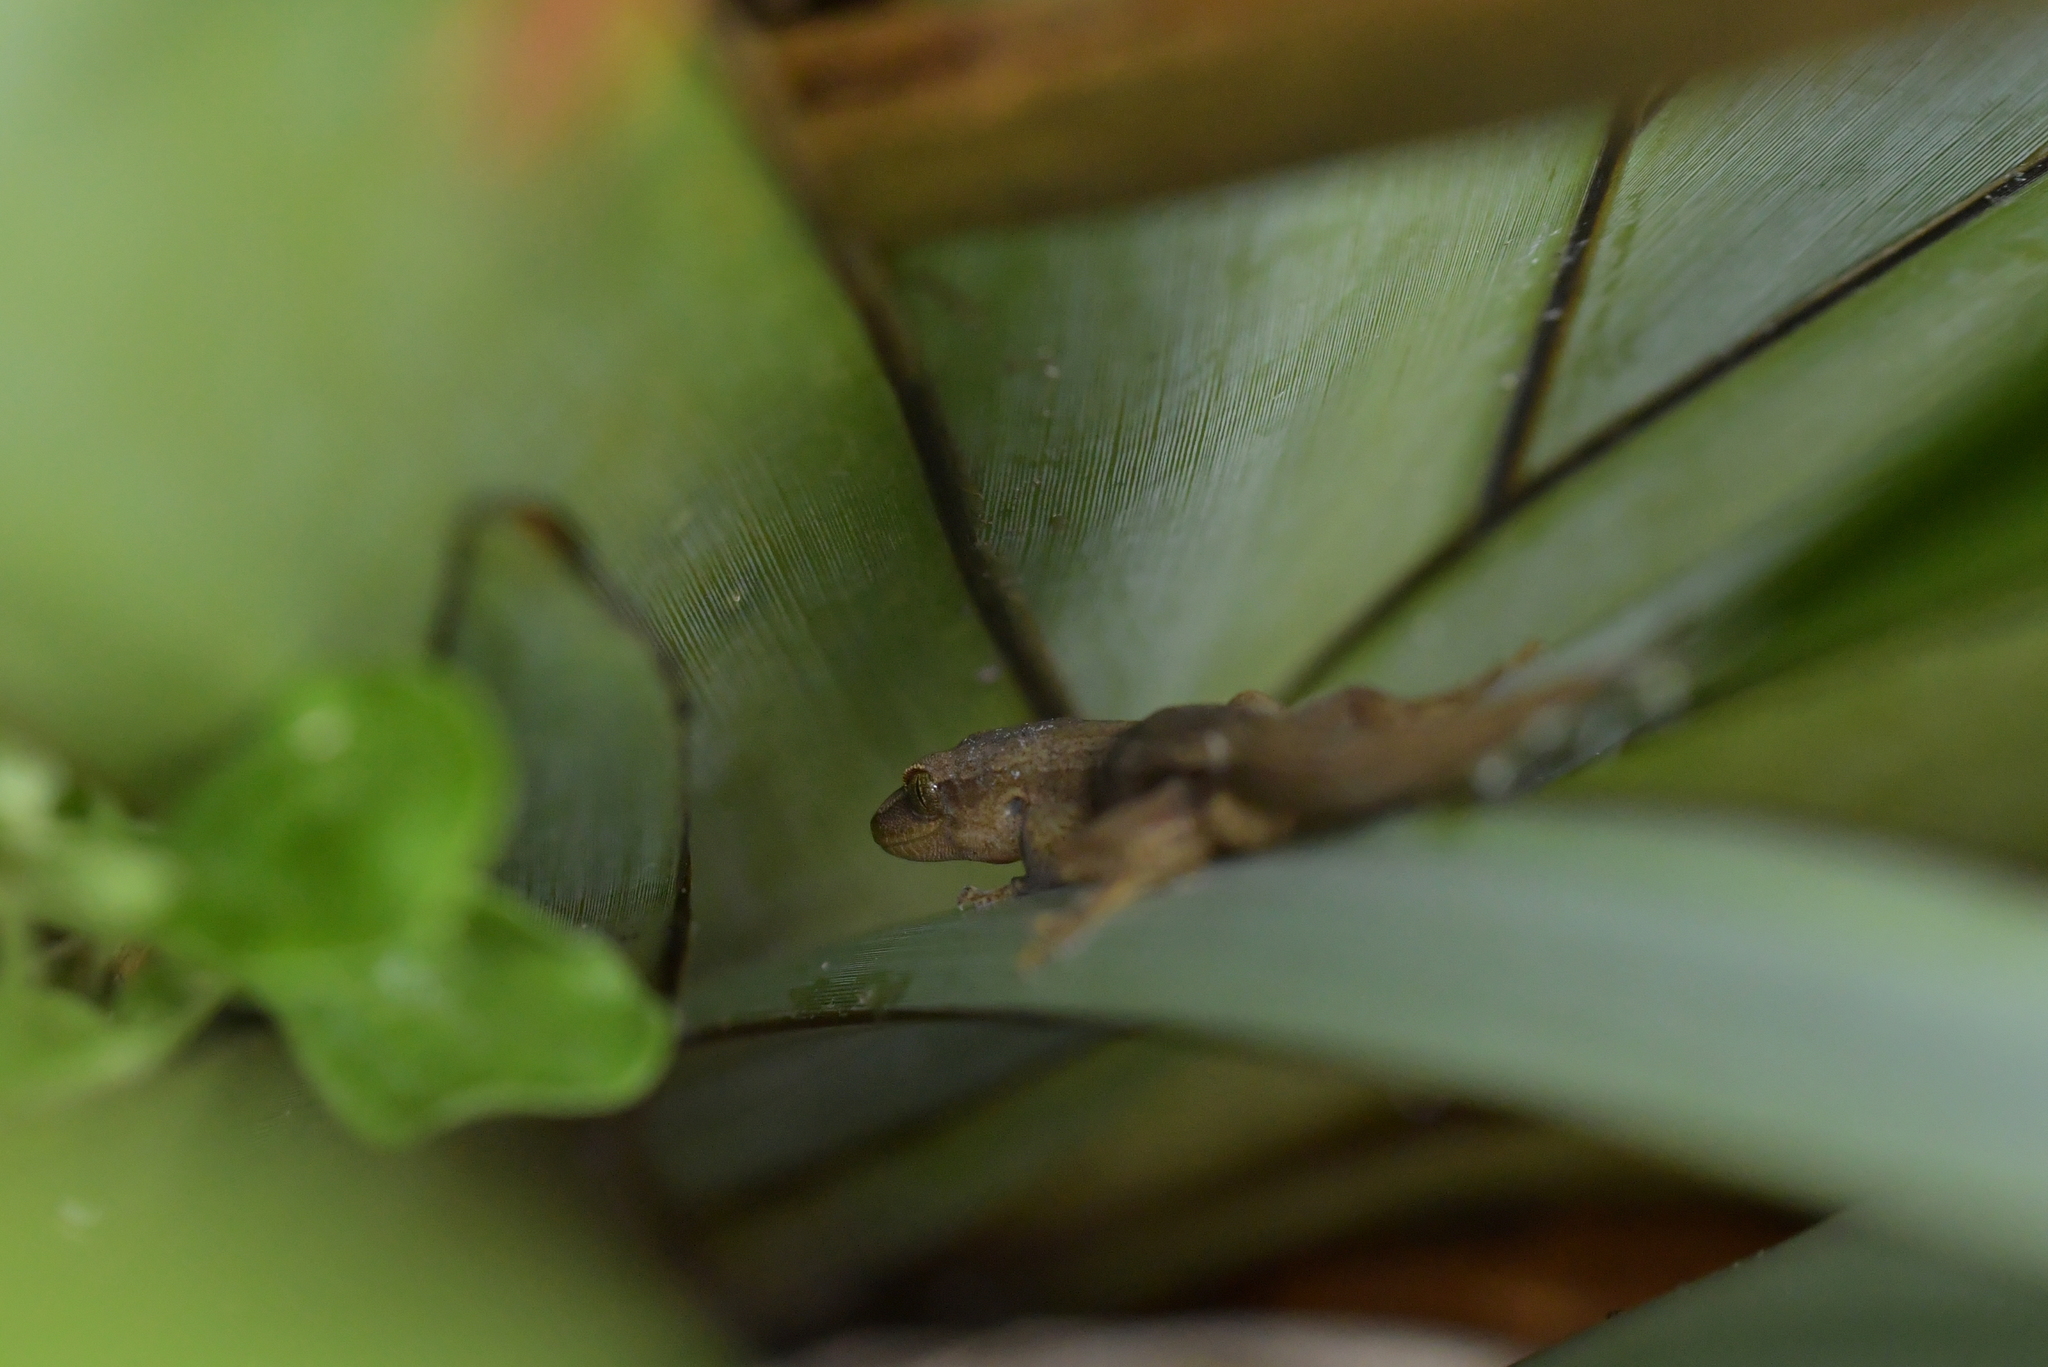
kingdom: Animalia
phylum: Chordata
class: Squamata
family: Diplodactylidae
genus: Woodworthia
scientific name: Woodworthia chrysosiretica
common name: Gold-striped gecko
